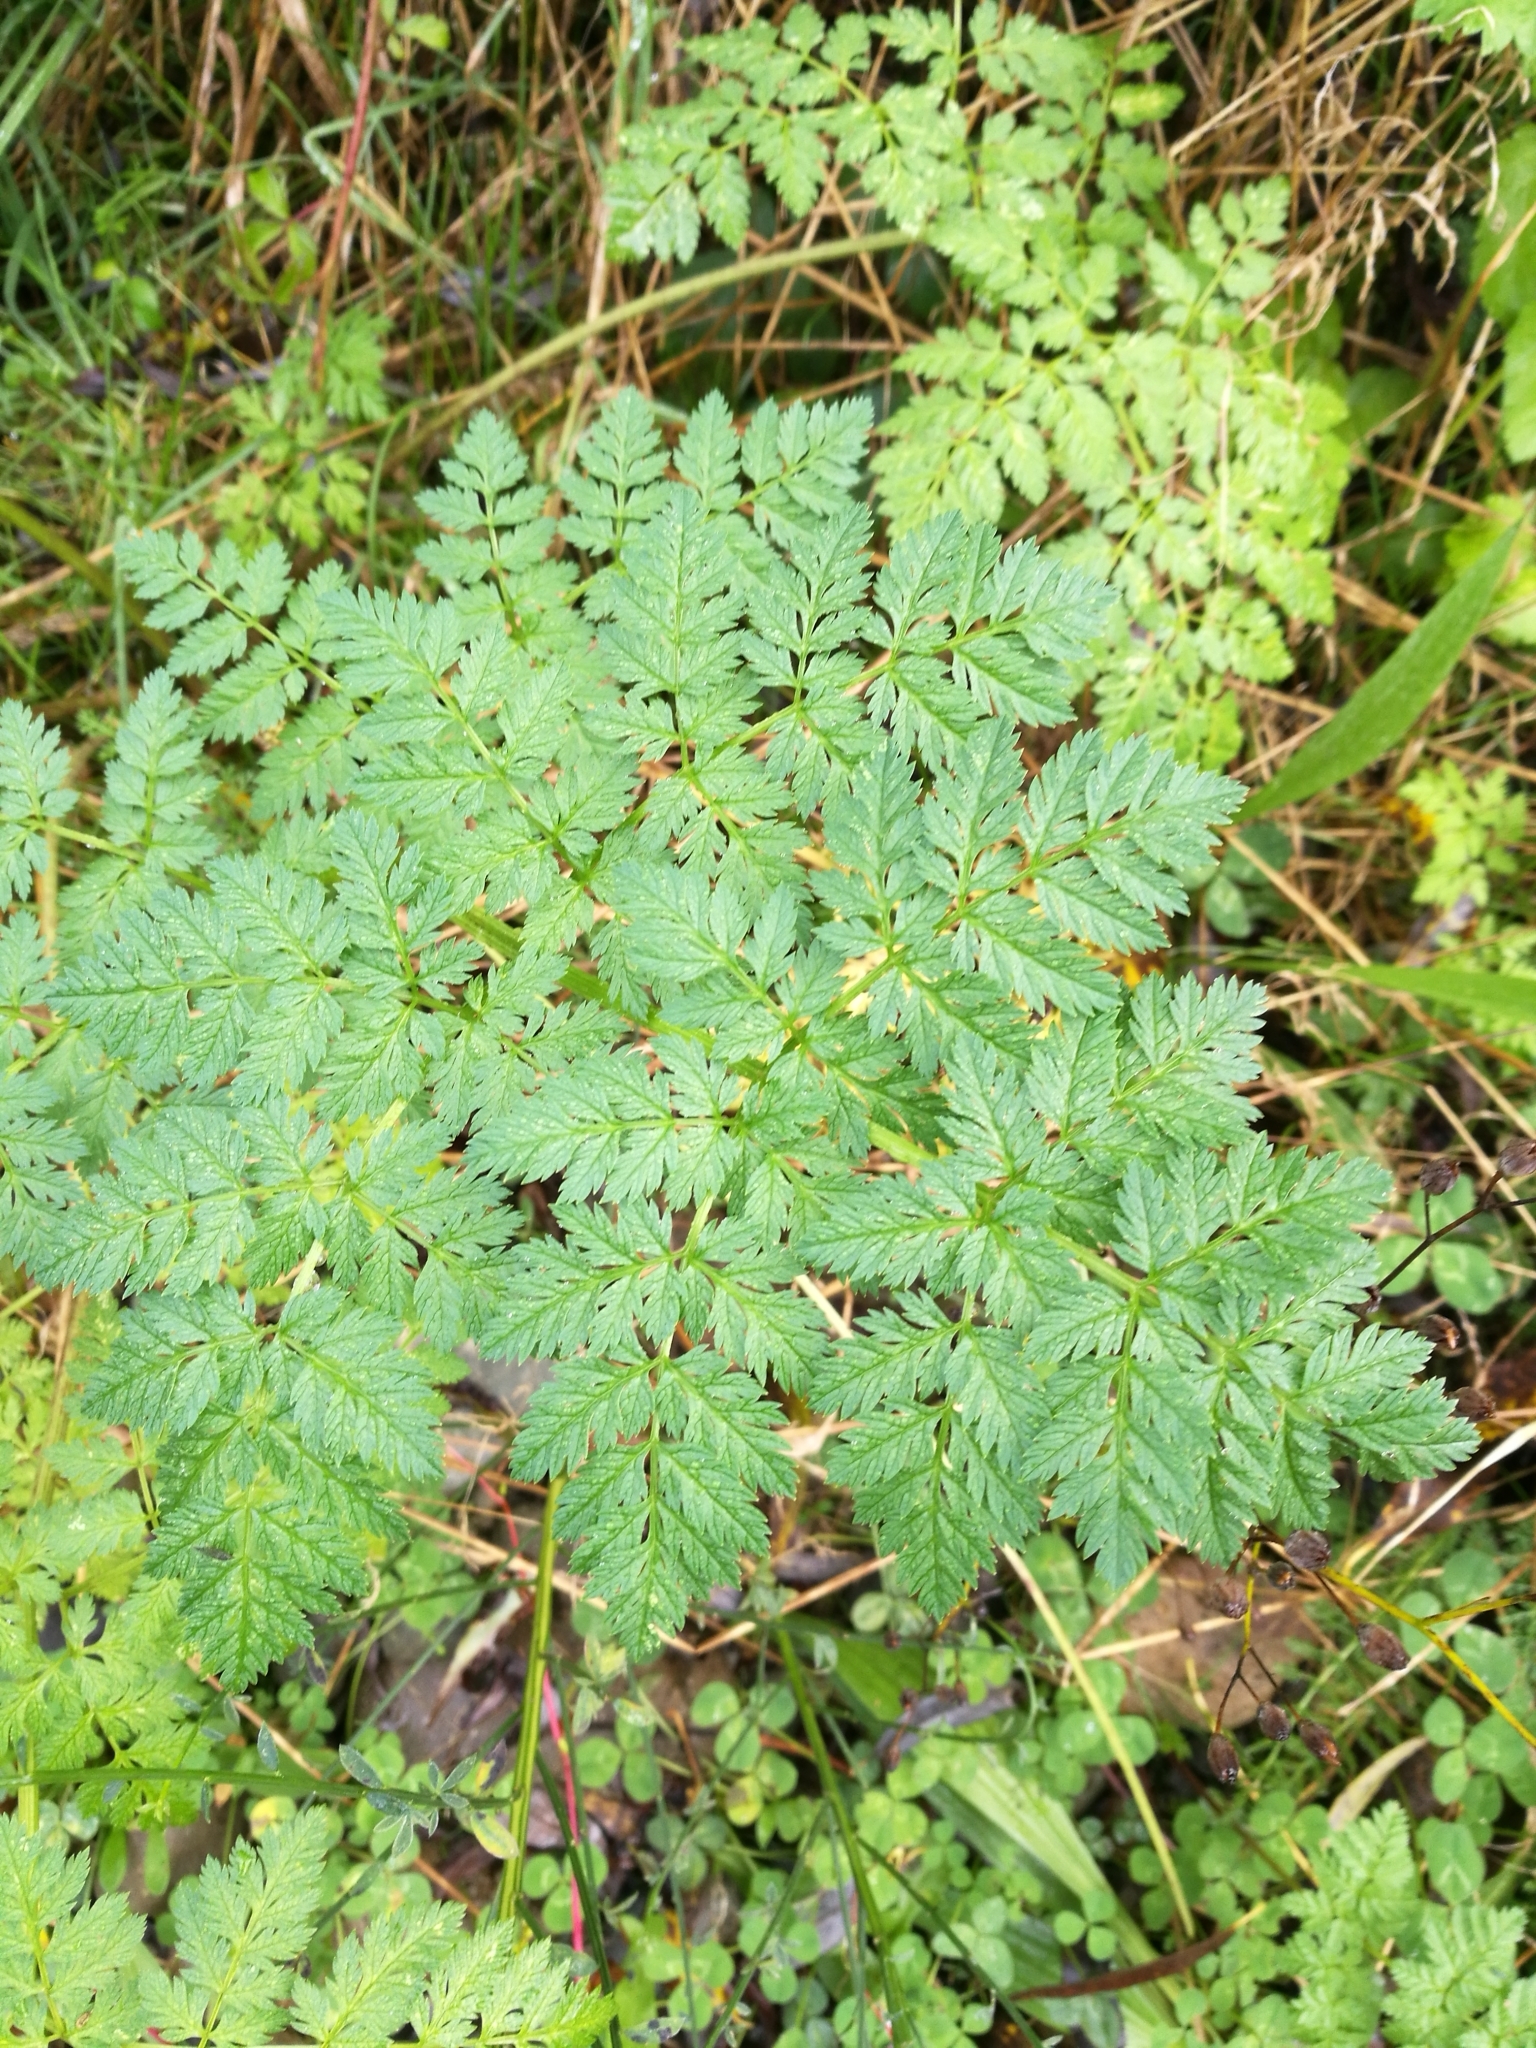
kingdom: Plantae
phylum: Tracheophyta
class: Magnoliopsida
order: Apiales
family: Apiaceae
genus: Conium
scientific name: Conium maculatum
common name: Hemlock
